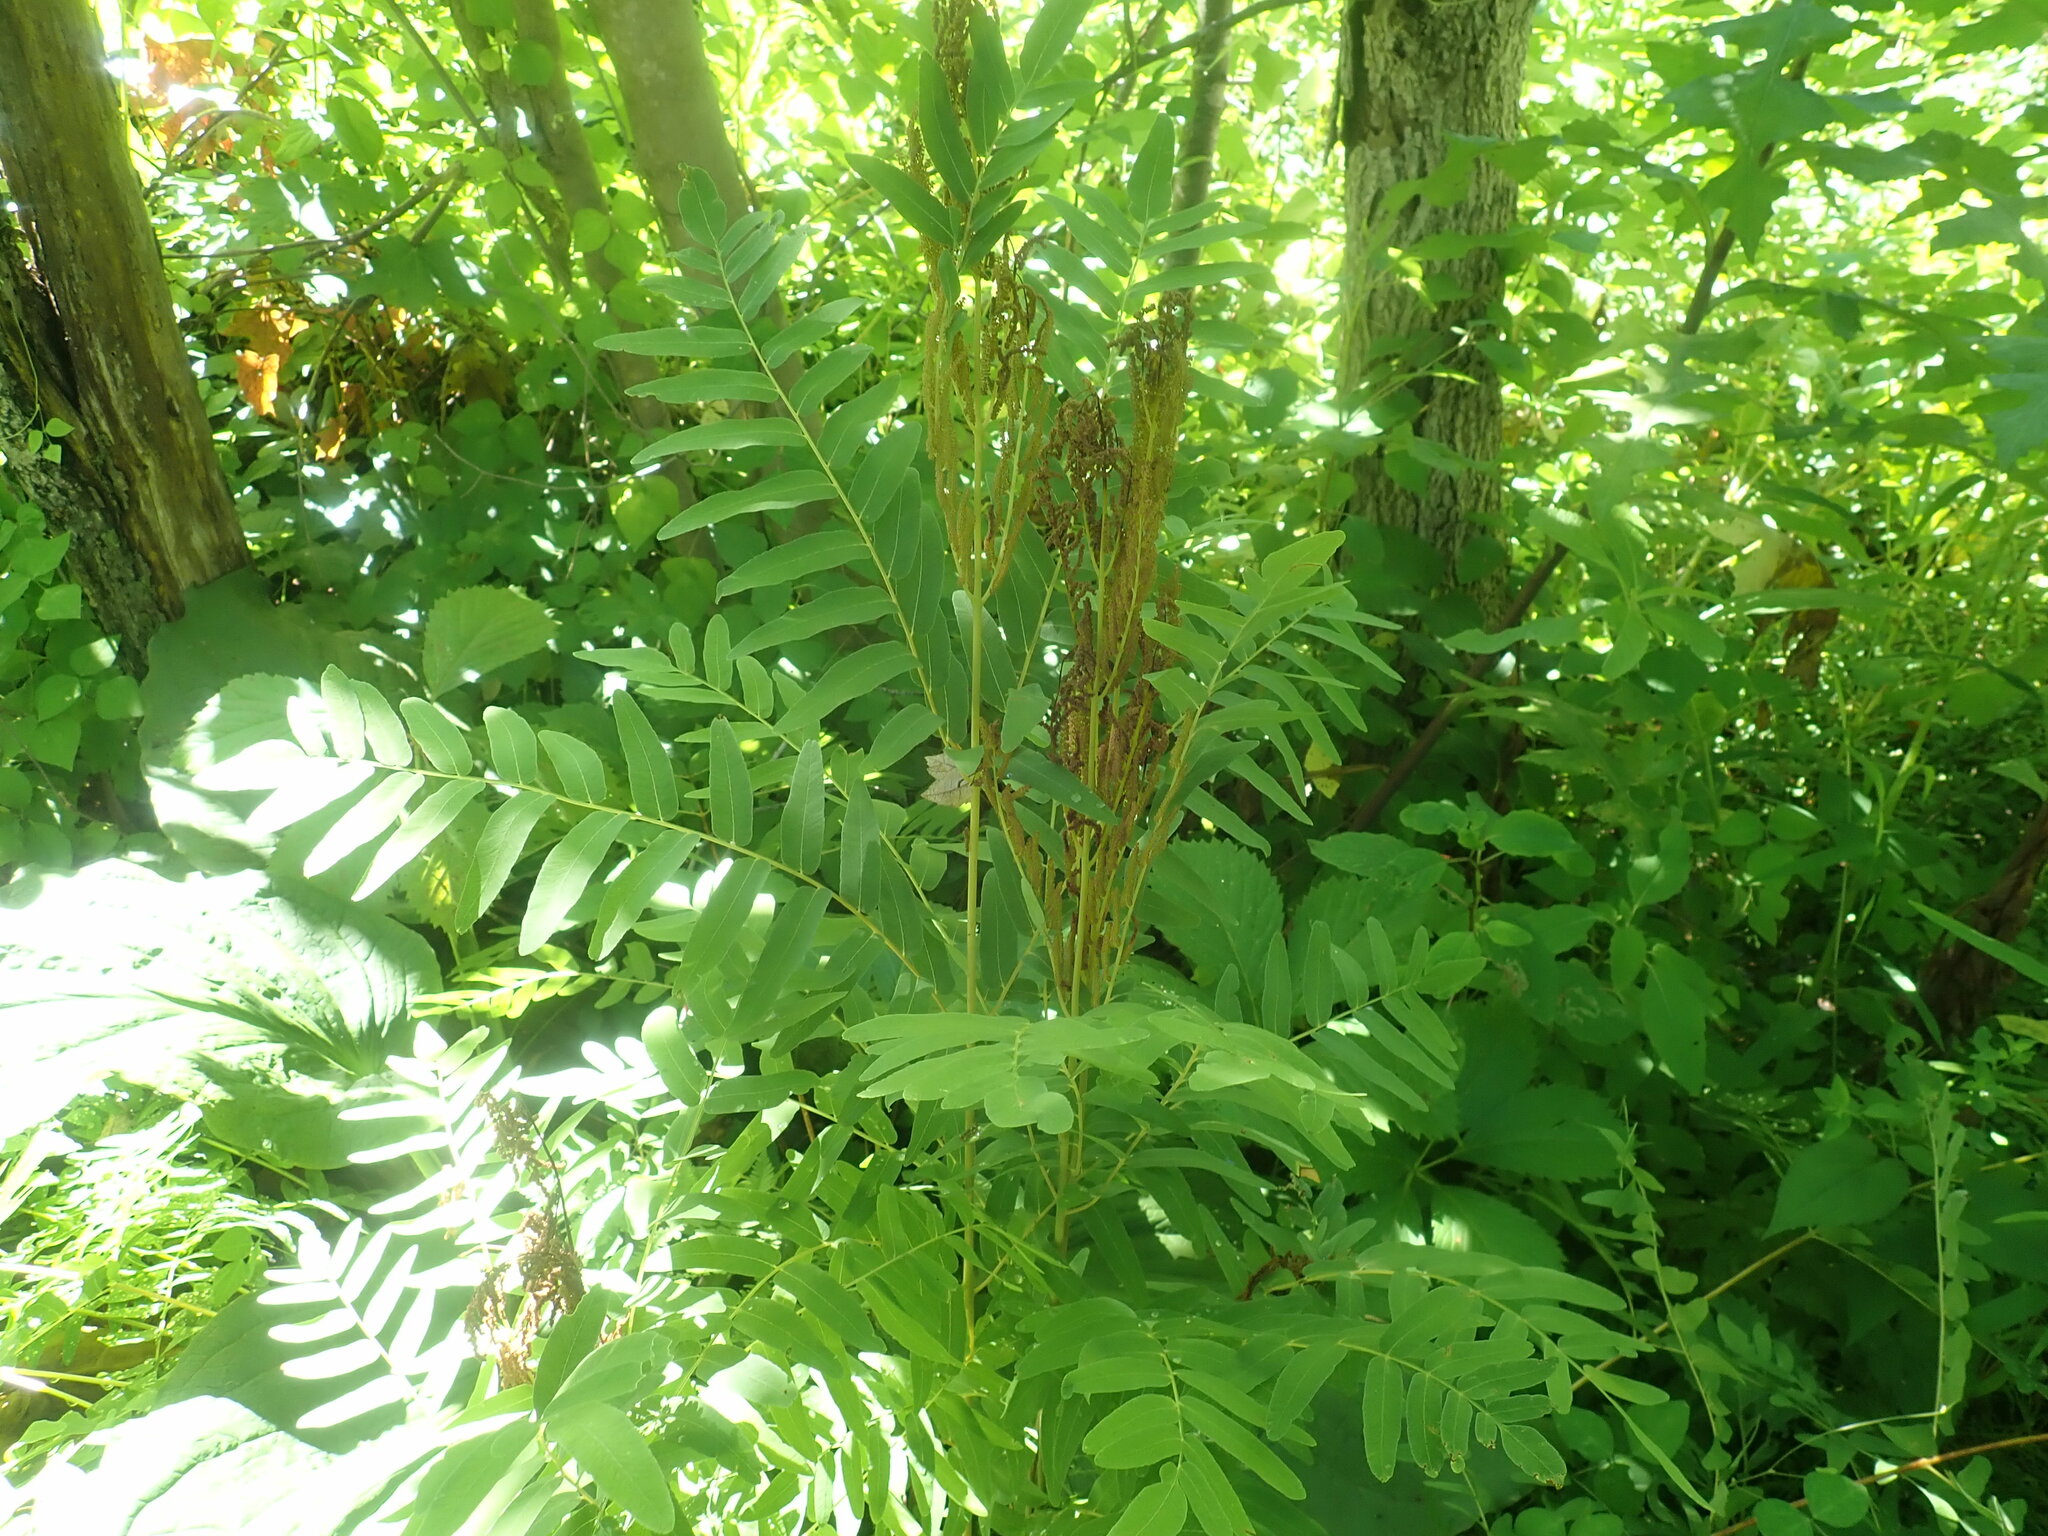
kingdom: Plantae
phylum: Tracheophyta
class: Polypodiopsida
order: Osmundales
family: Osmundaceae
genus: Osmunda
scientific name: Osmunda spectabilis
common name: American royal fern
